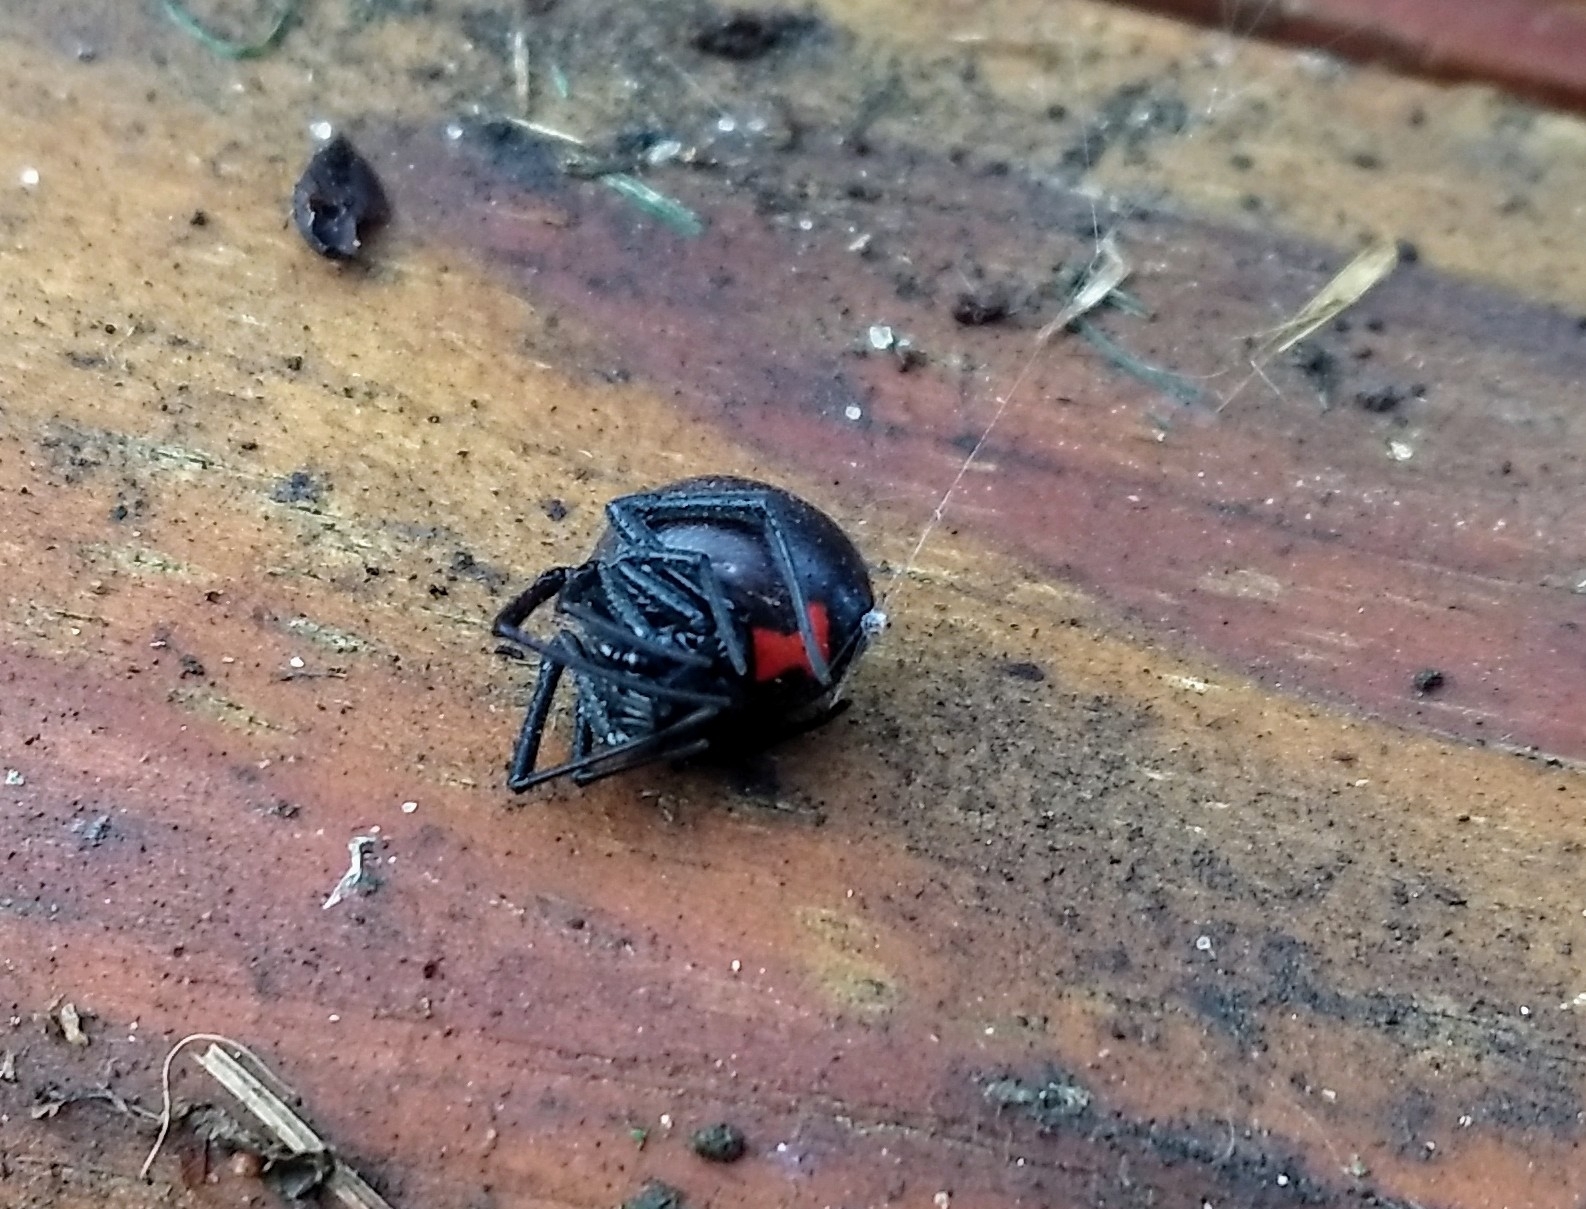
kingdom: Animalia
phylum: Arthropoda
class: Arachnida
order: Araneae
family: Theridiidae
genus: Latrodectus
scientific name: Latrodectus mactans
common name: Cobweb spiders
